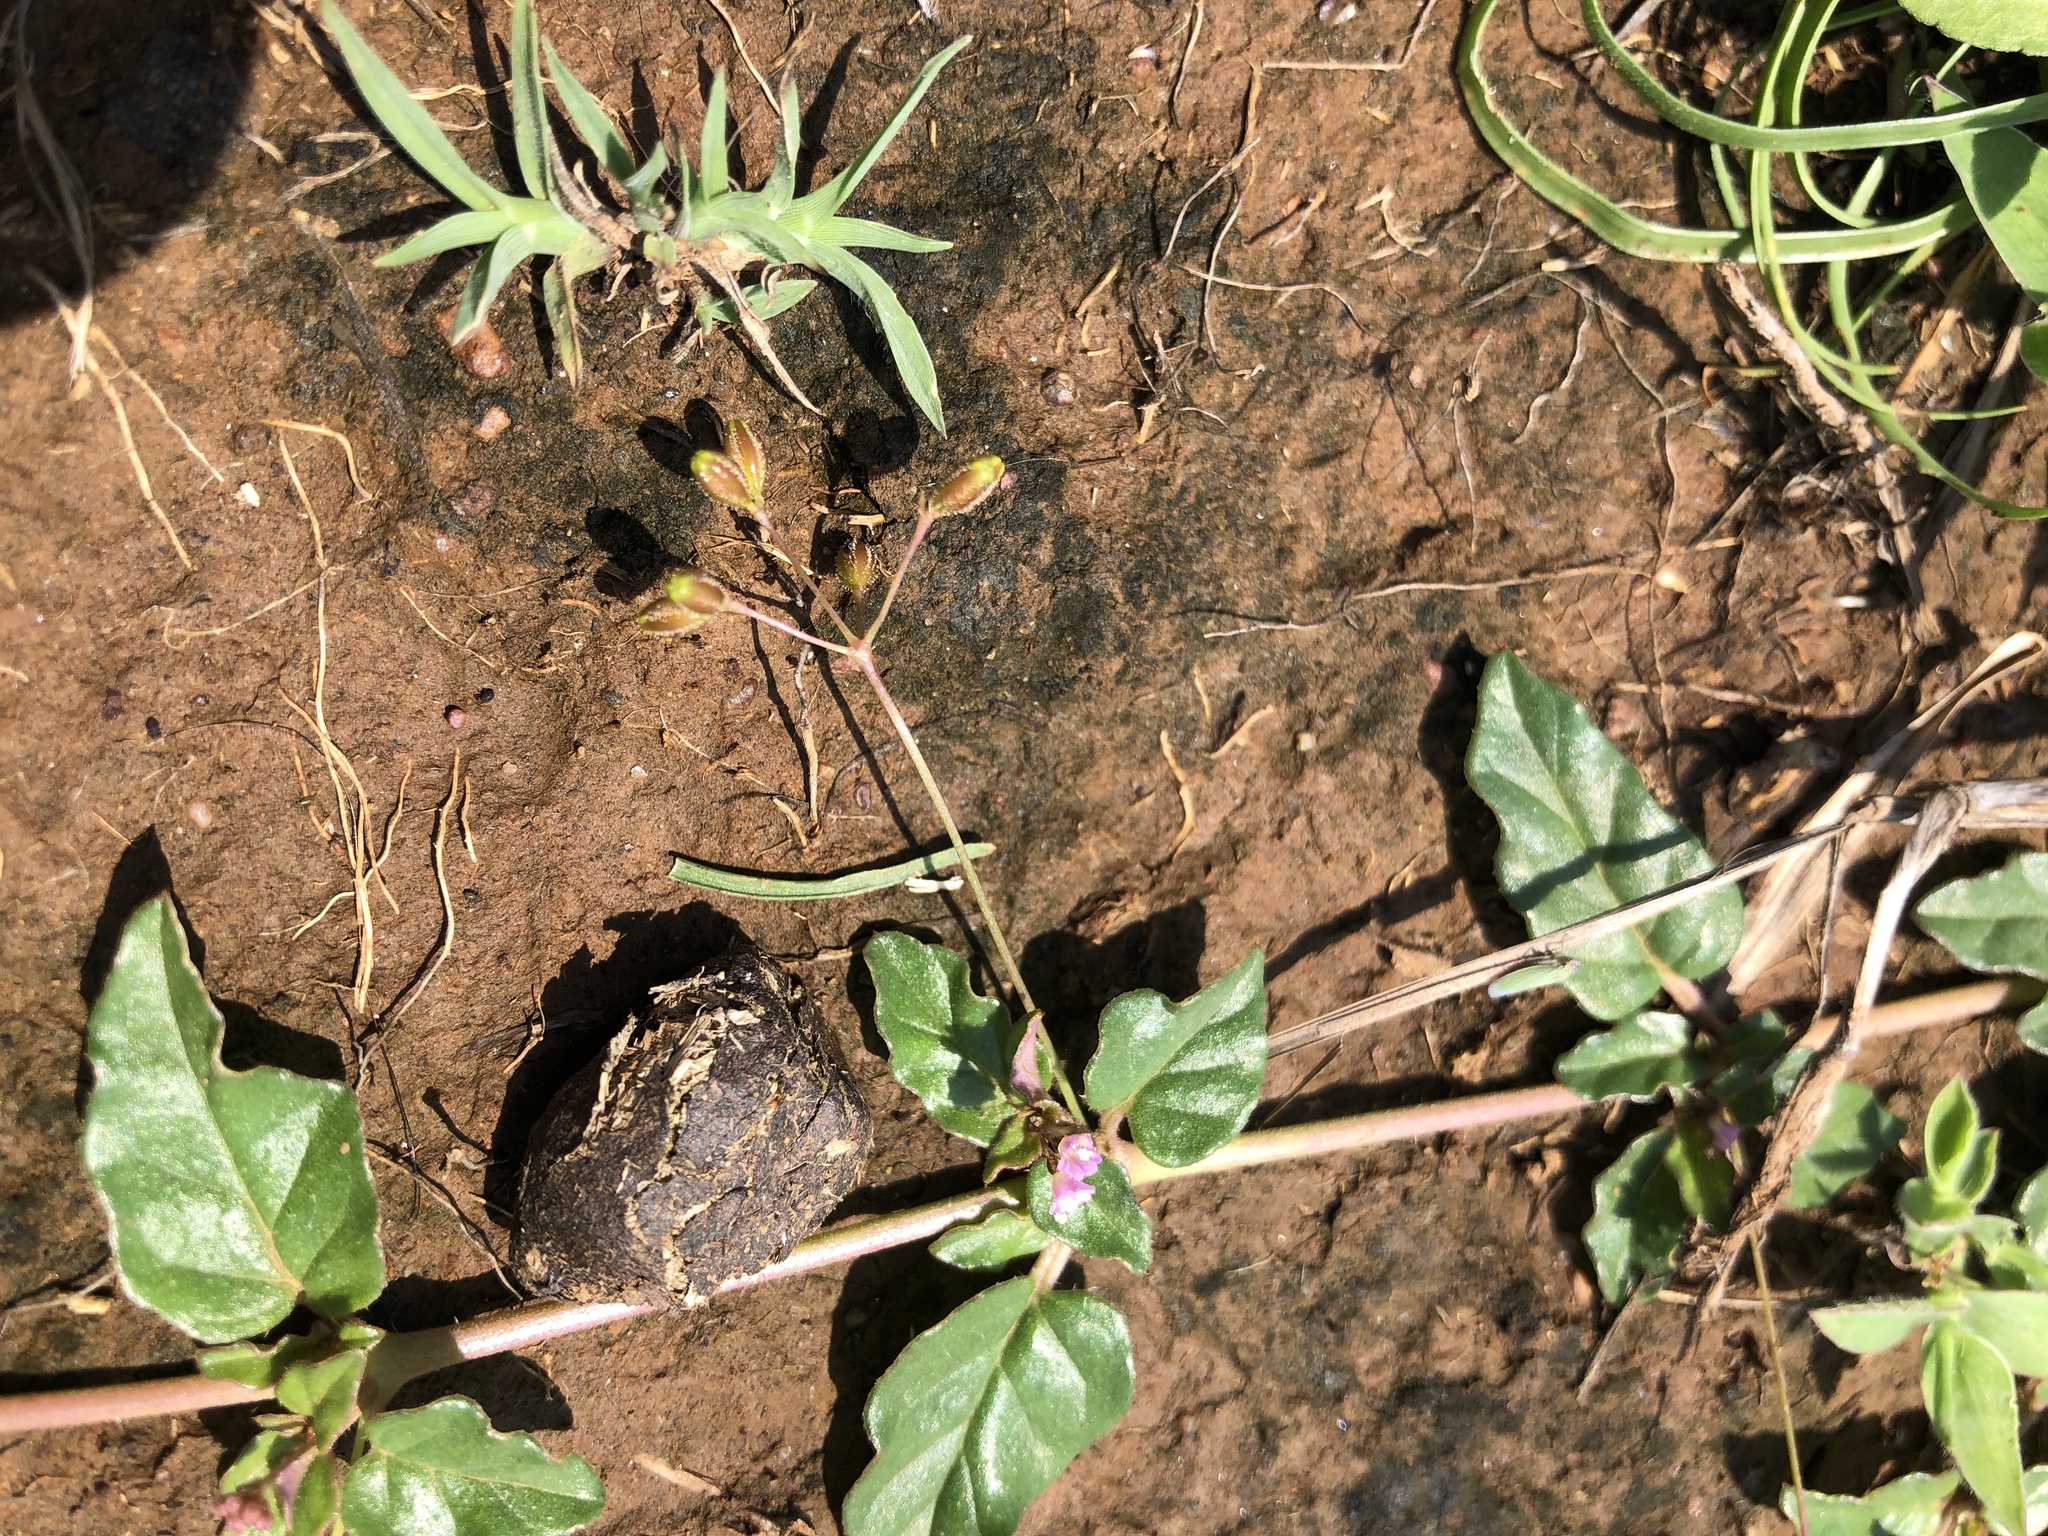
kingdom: Plantae
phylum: Tracheophyta
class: Magnoliopsida
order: Caryophyllales
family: Nyctaginaceae
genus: Boerhavia
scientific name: Boerhavia glabrata
